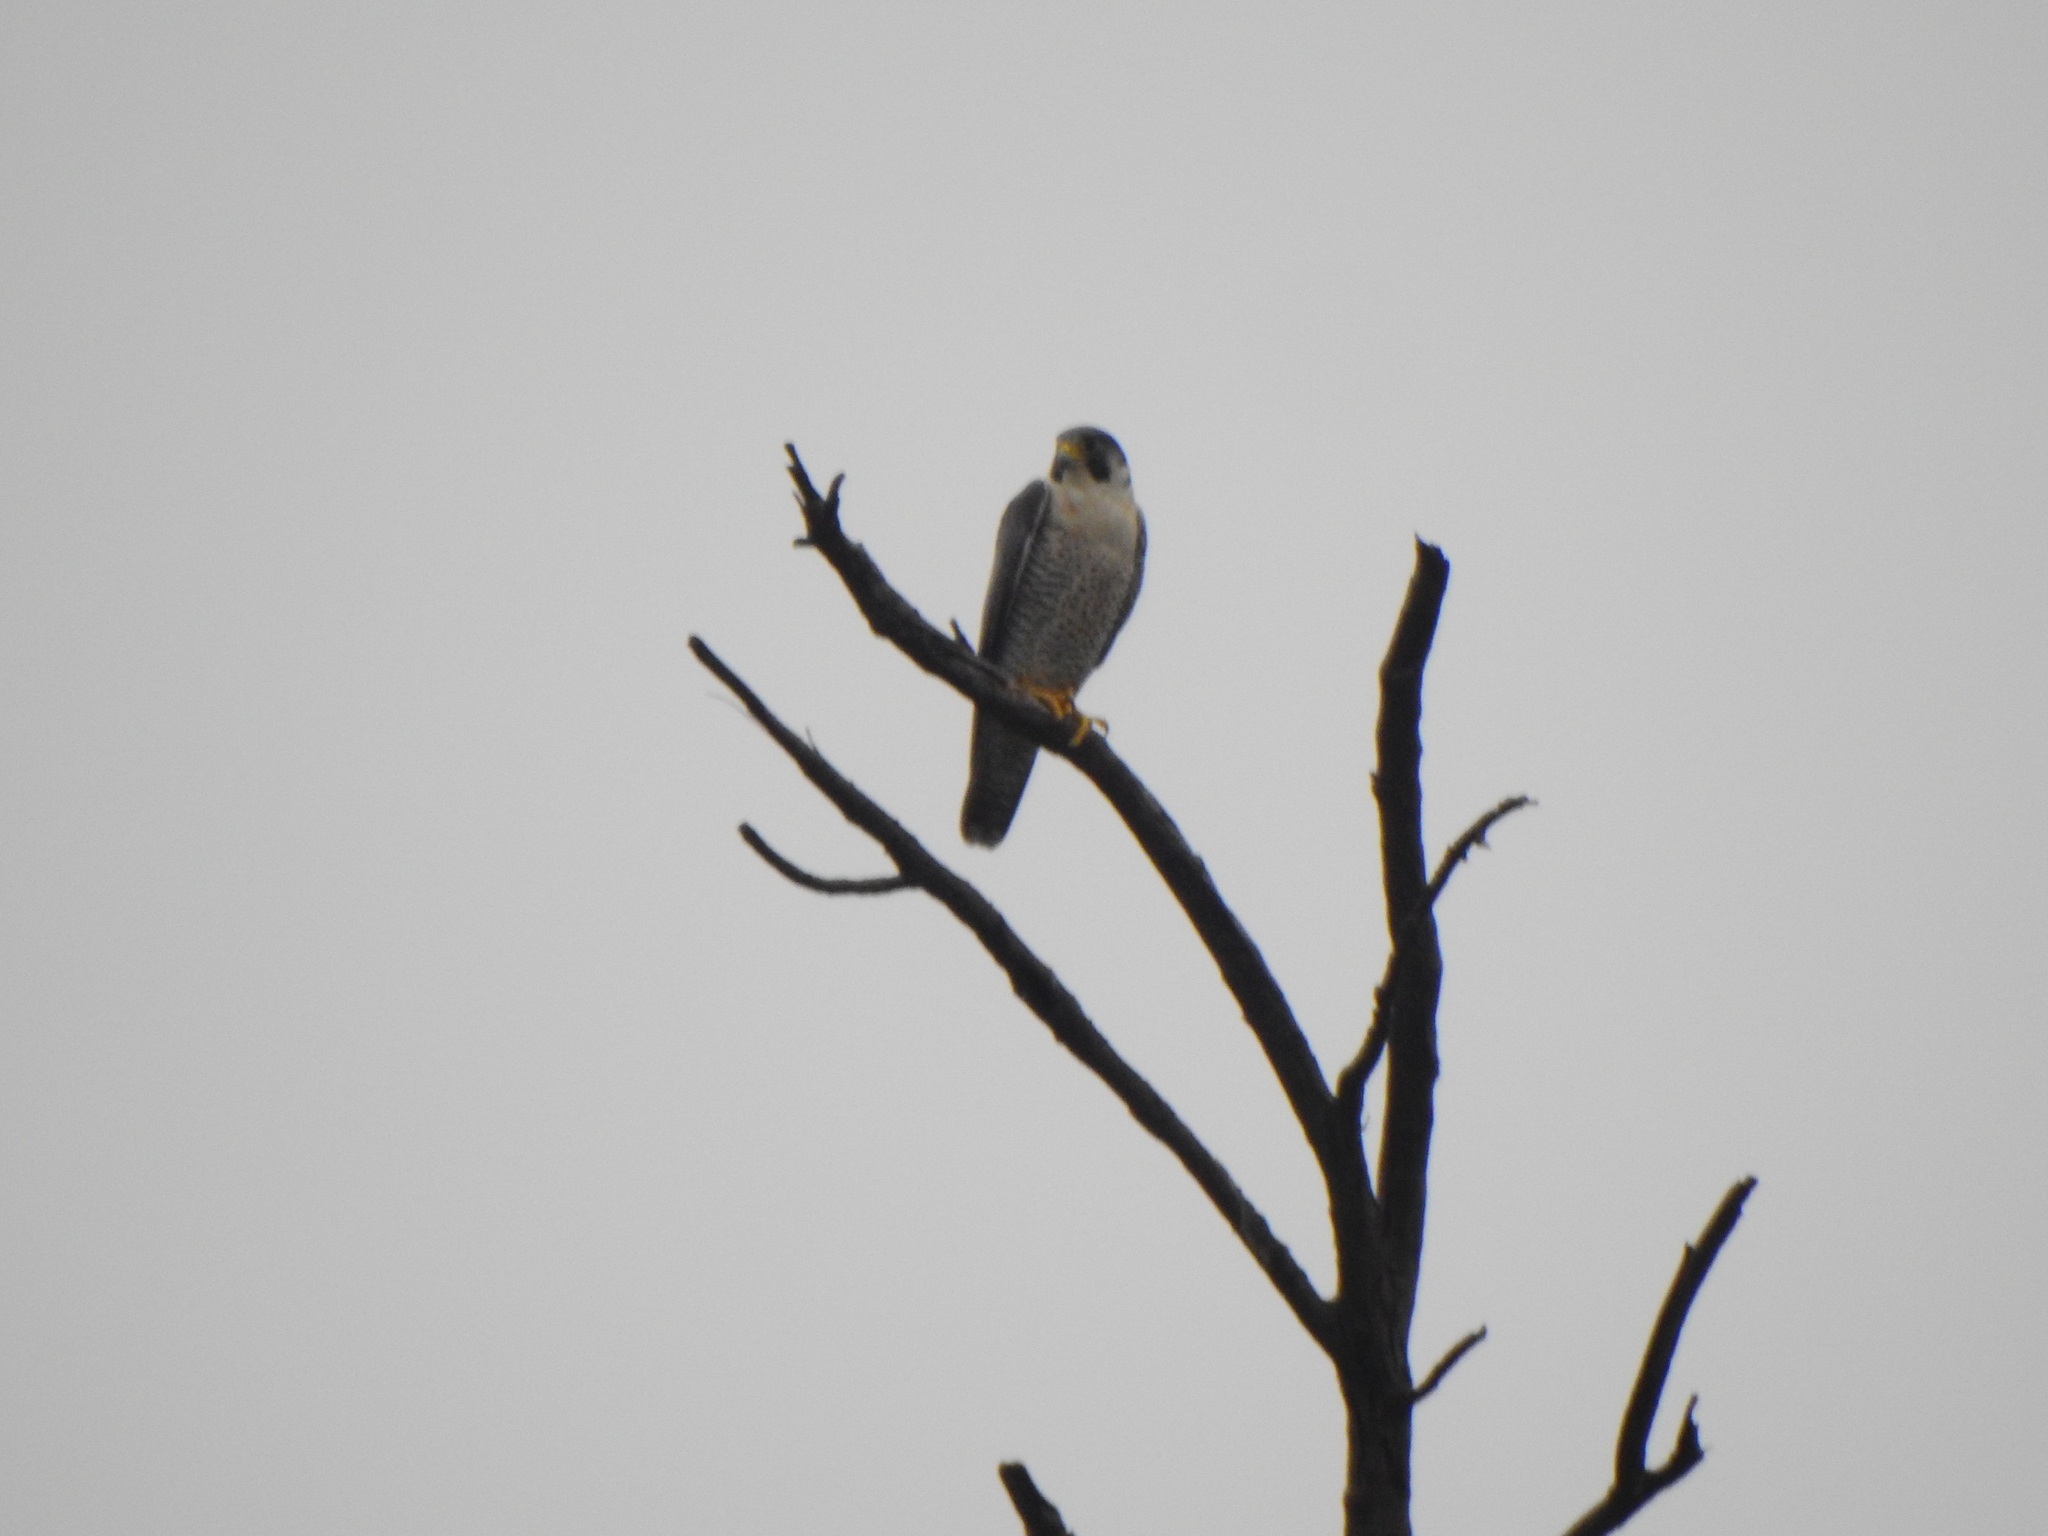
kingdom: Animalia
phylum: Chordata
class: Aves
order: Falconiformes
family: Falconidae
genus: Falco
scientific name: Falco peregrinus
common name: Peregrine falcon
